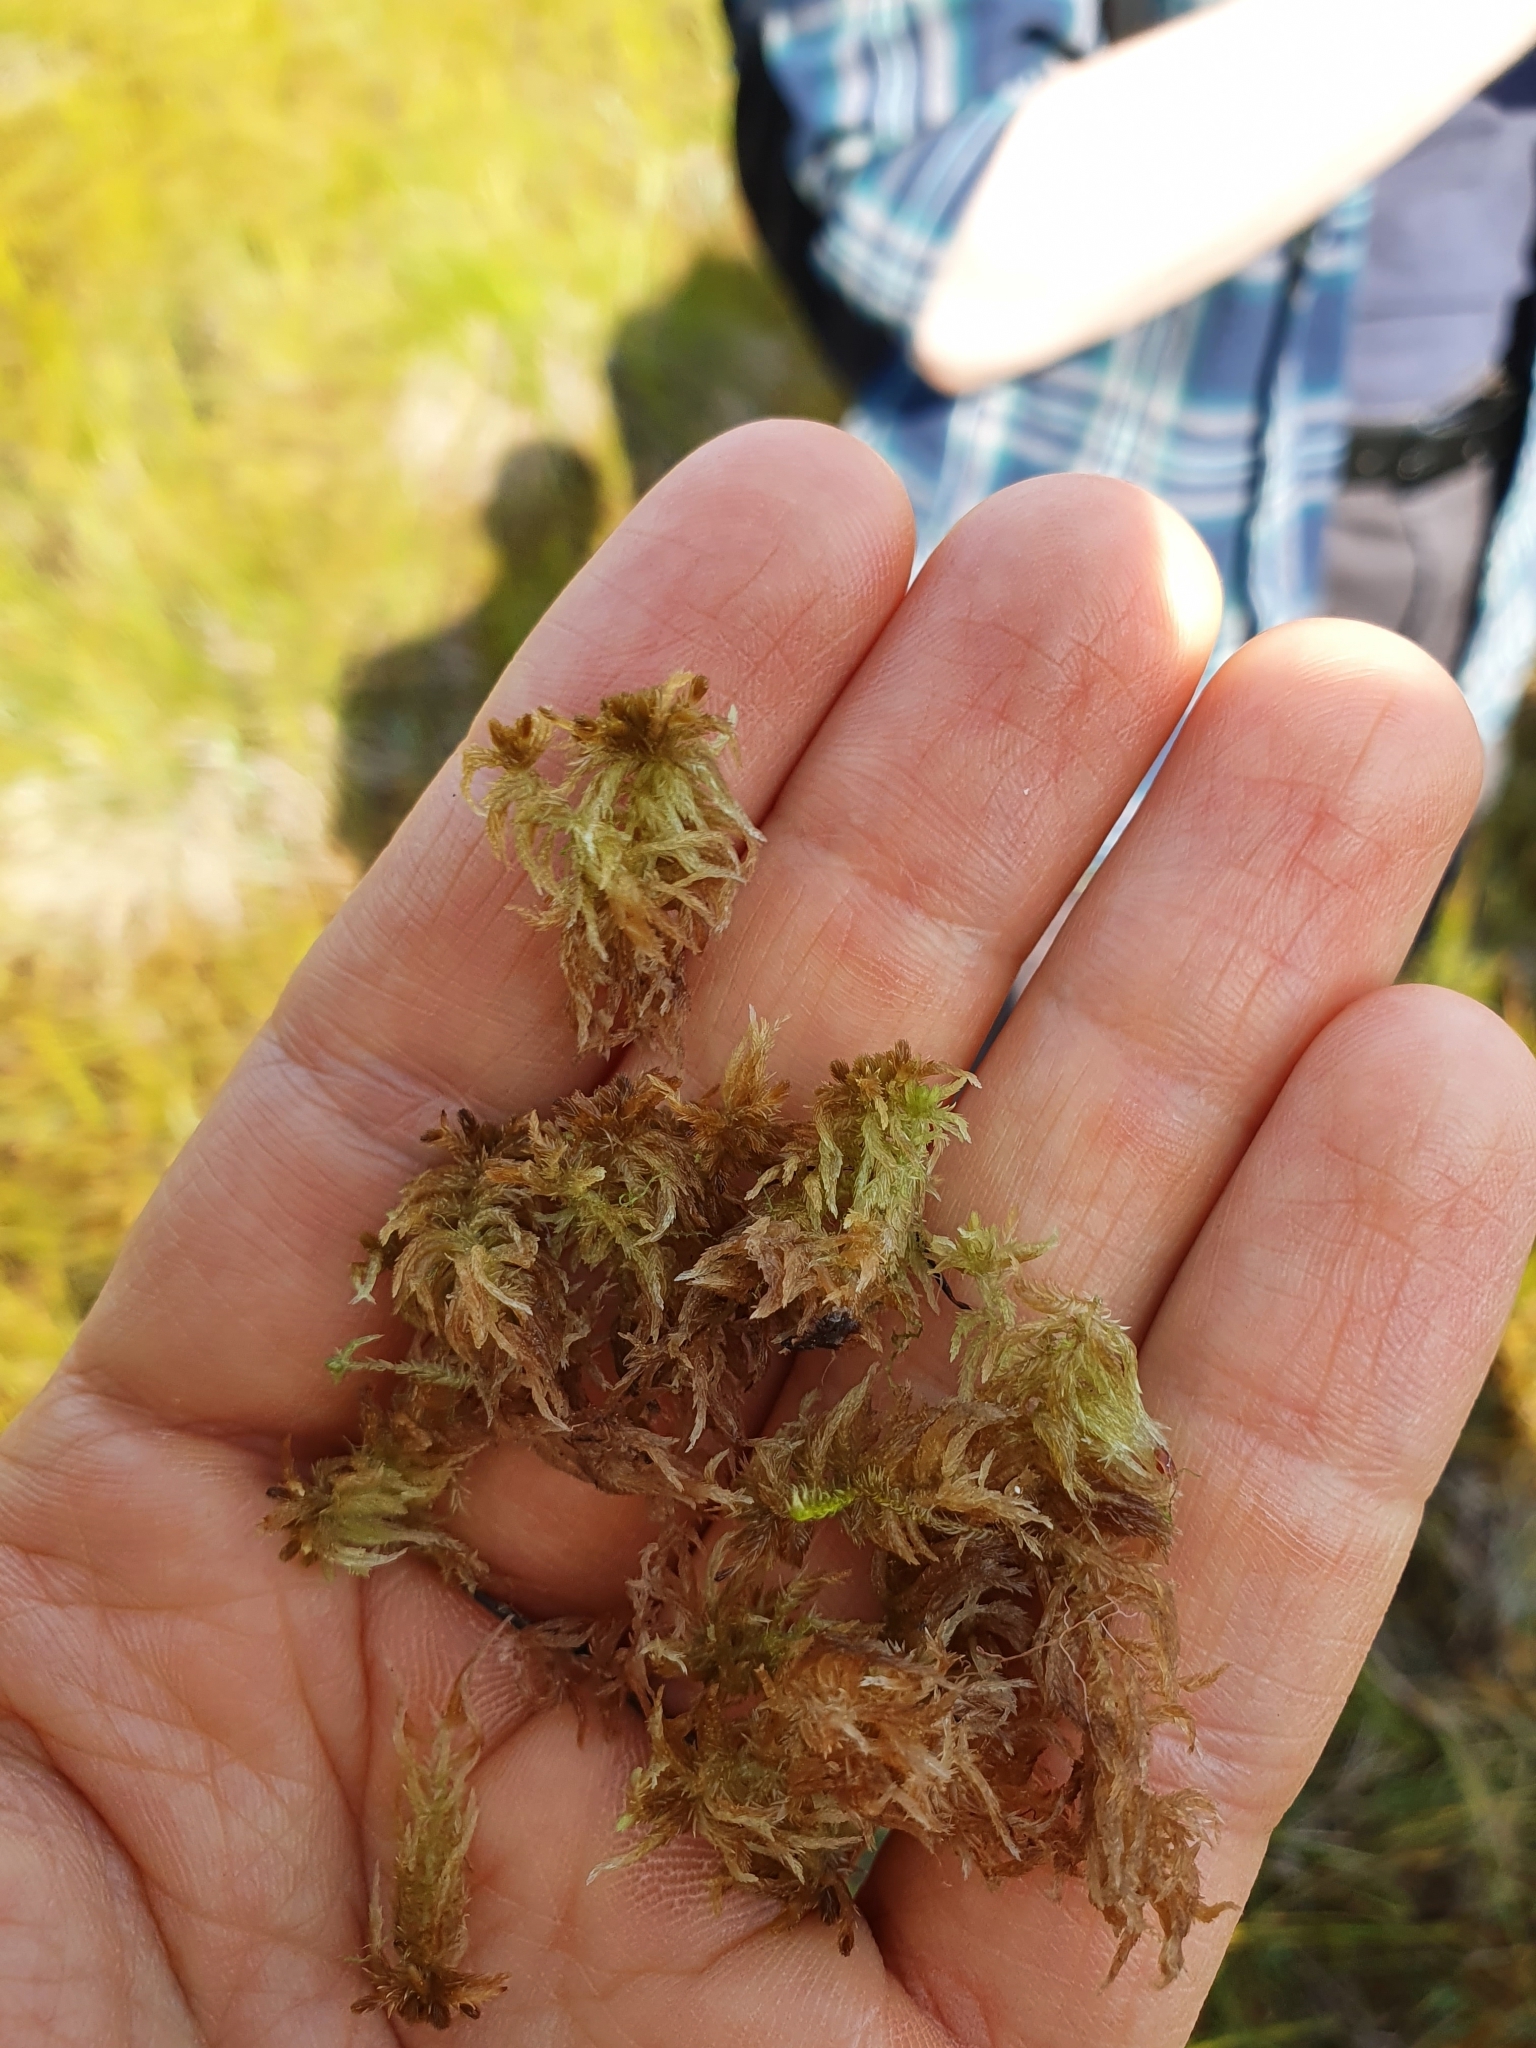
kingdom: Plantae
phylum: Bryophyta
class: Sphagnopsida
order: Sphagnales
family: Sphagnaceae
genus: Sphagnum
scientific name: Sphagnum balticum
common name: Baltic bog-moss
